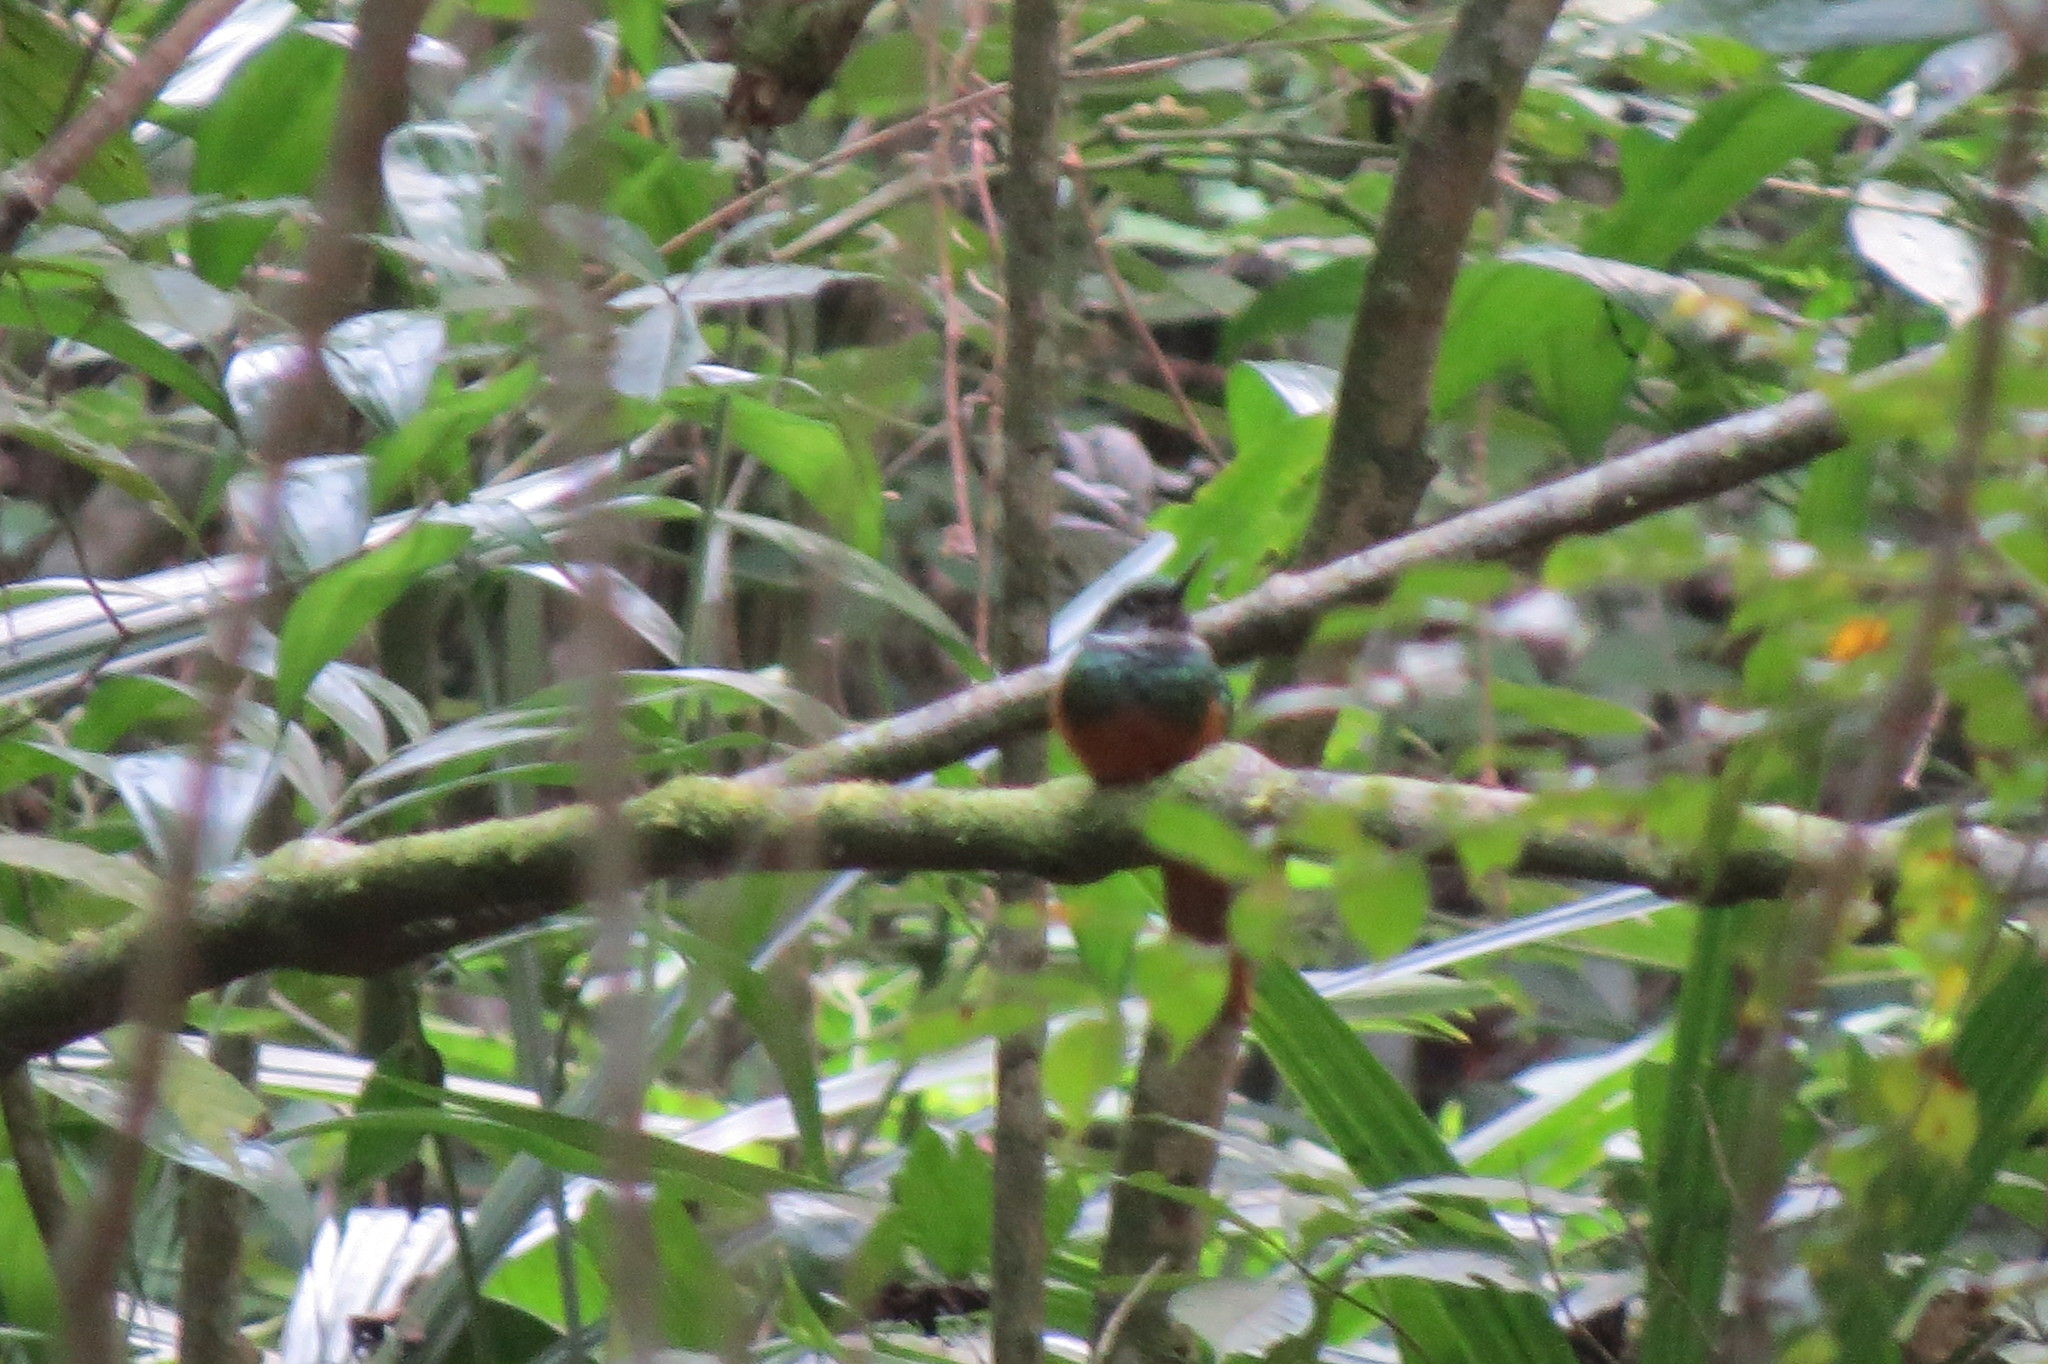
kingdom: Animalia
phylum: Chordata
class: Aves
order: Piciformes
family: Galbulidae
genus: Galbula
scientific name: Galbula ruficauda
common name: Rufous-tailed jacamar
